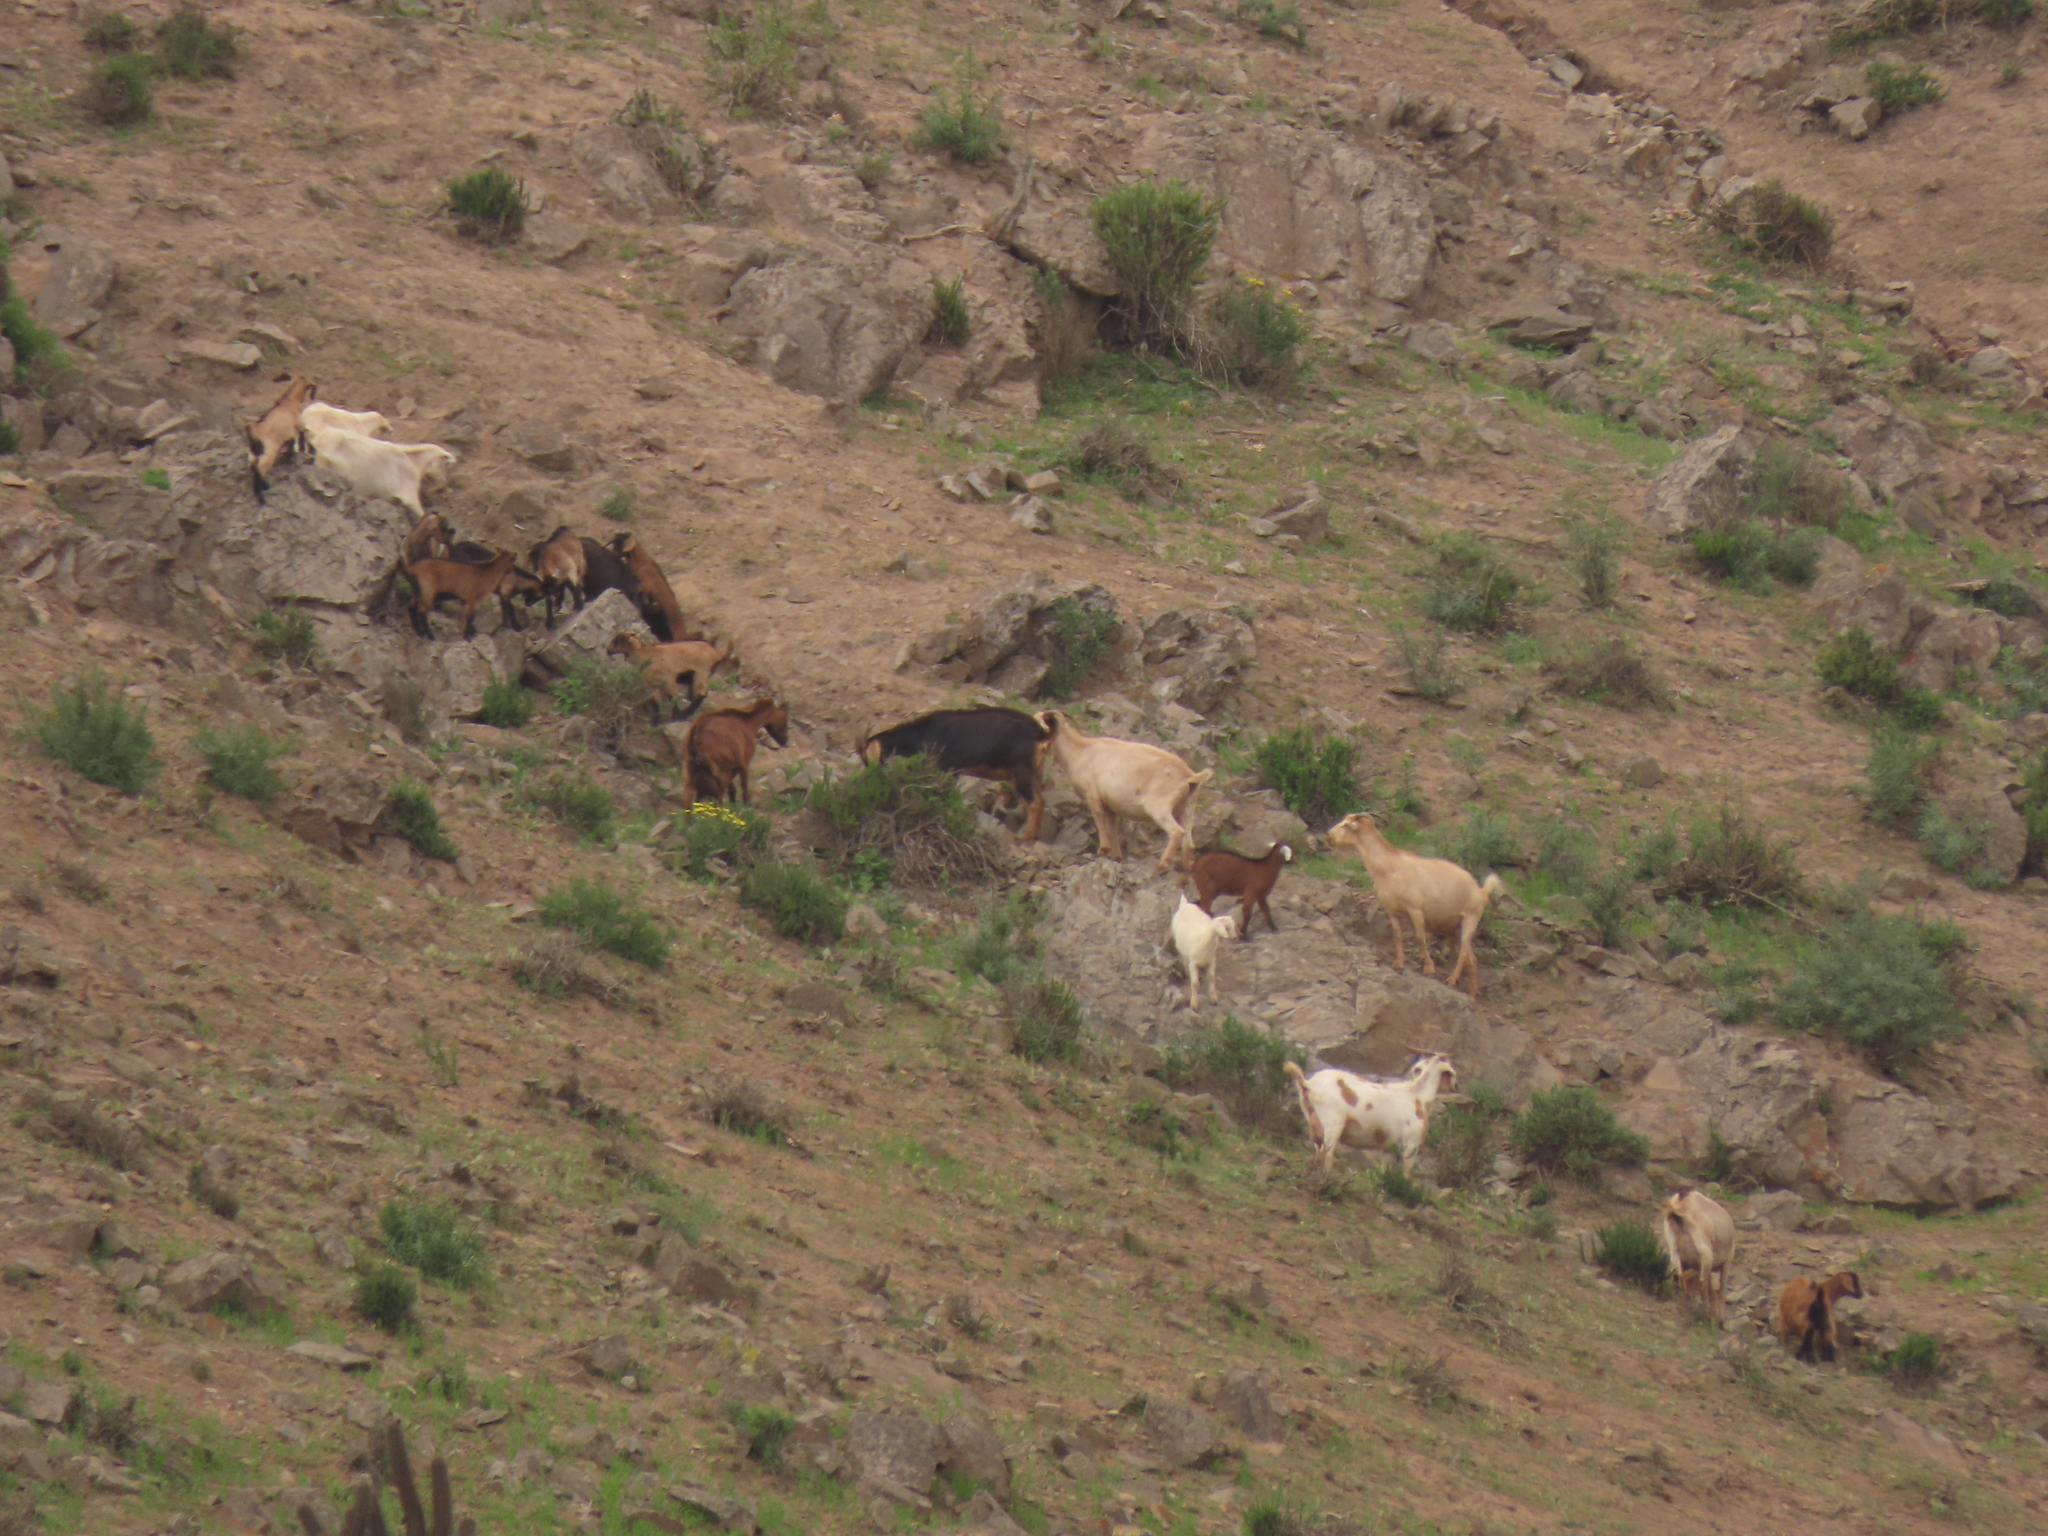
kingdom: Animalia
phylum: Chordata
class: Mammalia
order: Artiodactyla
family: Bovidae
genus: Capra
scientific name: Capra hircus
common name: Domestic goat
